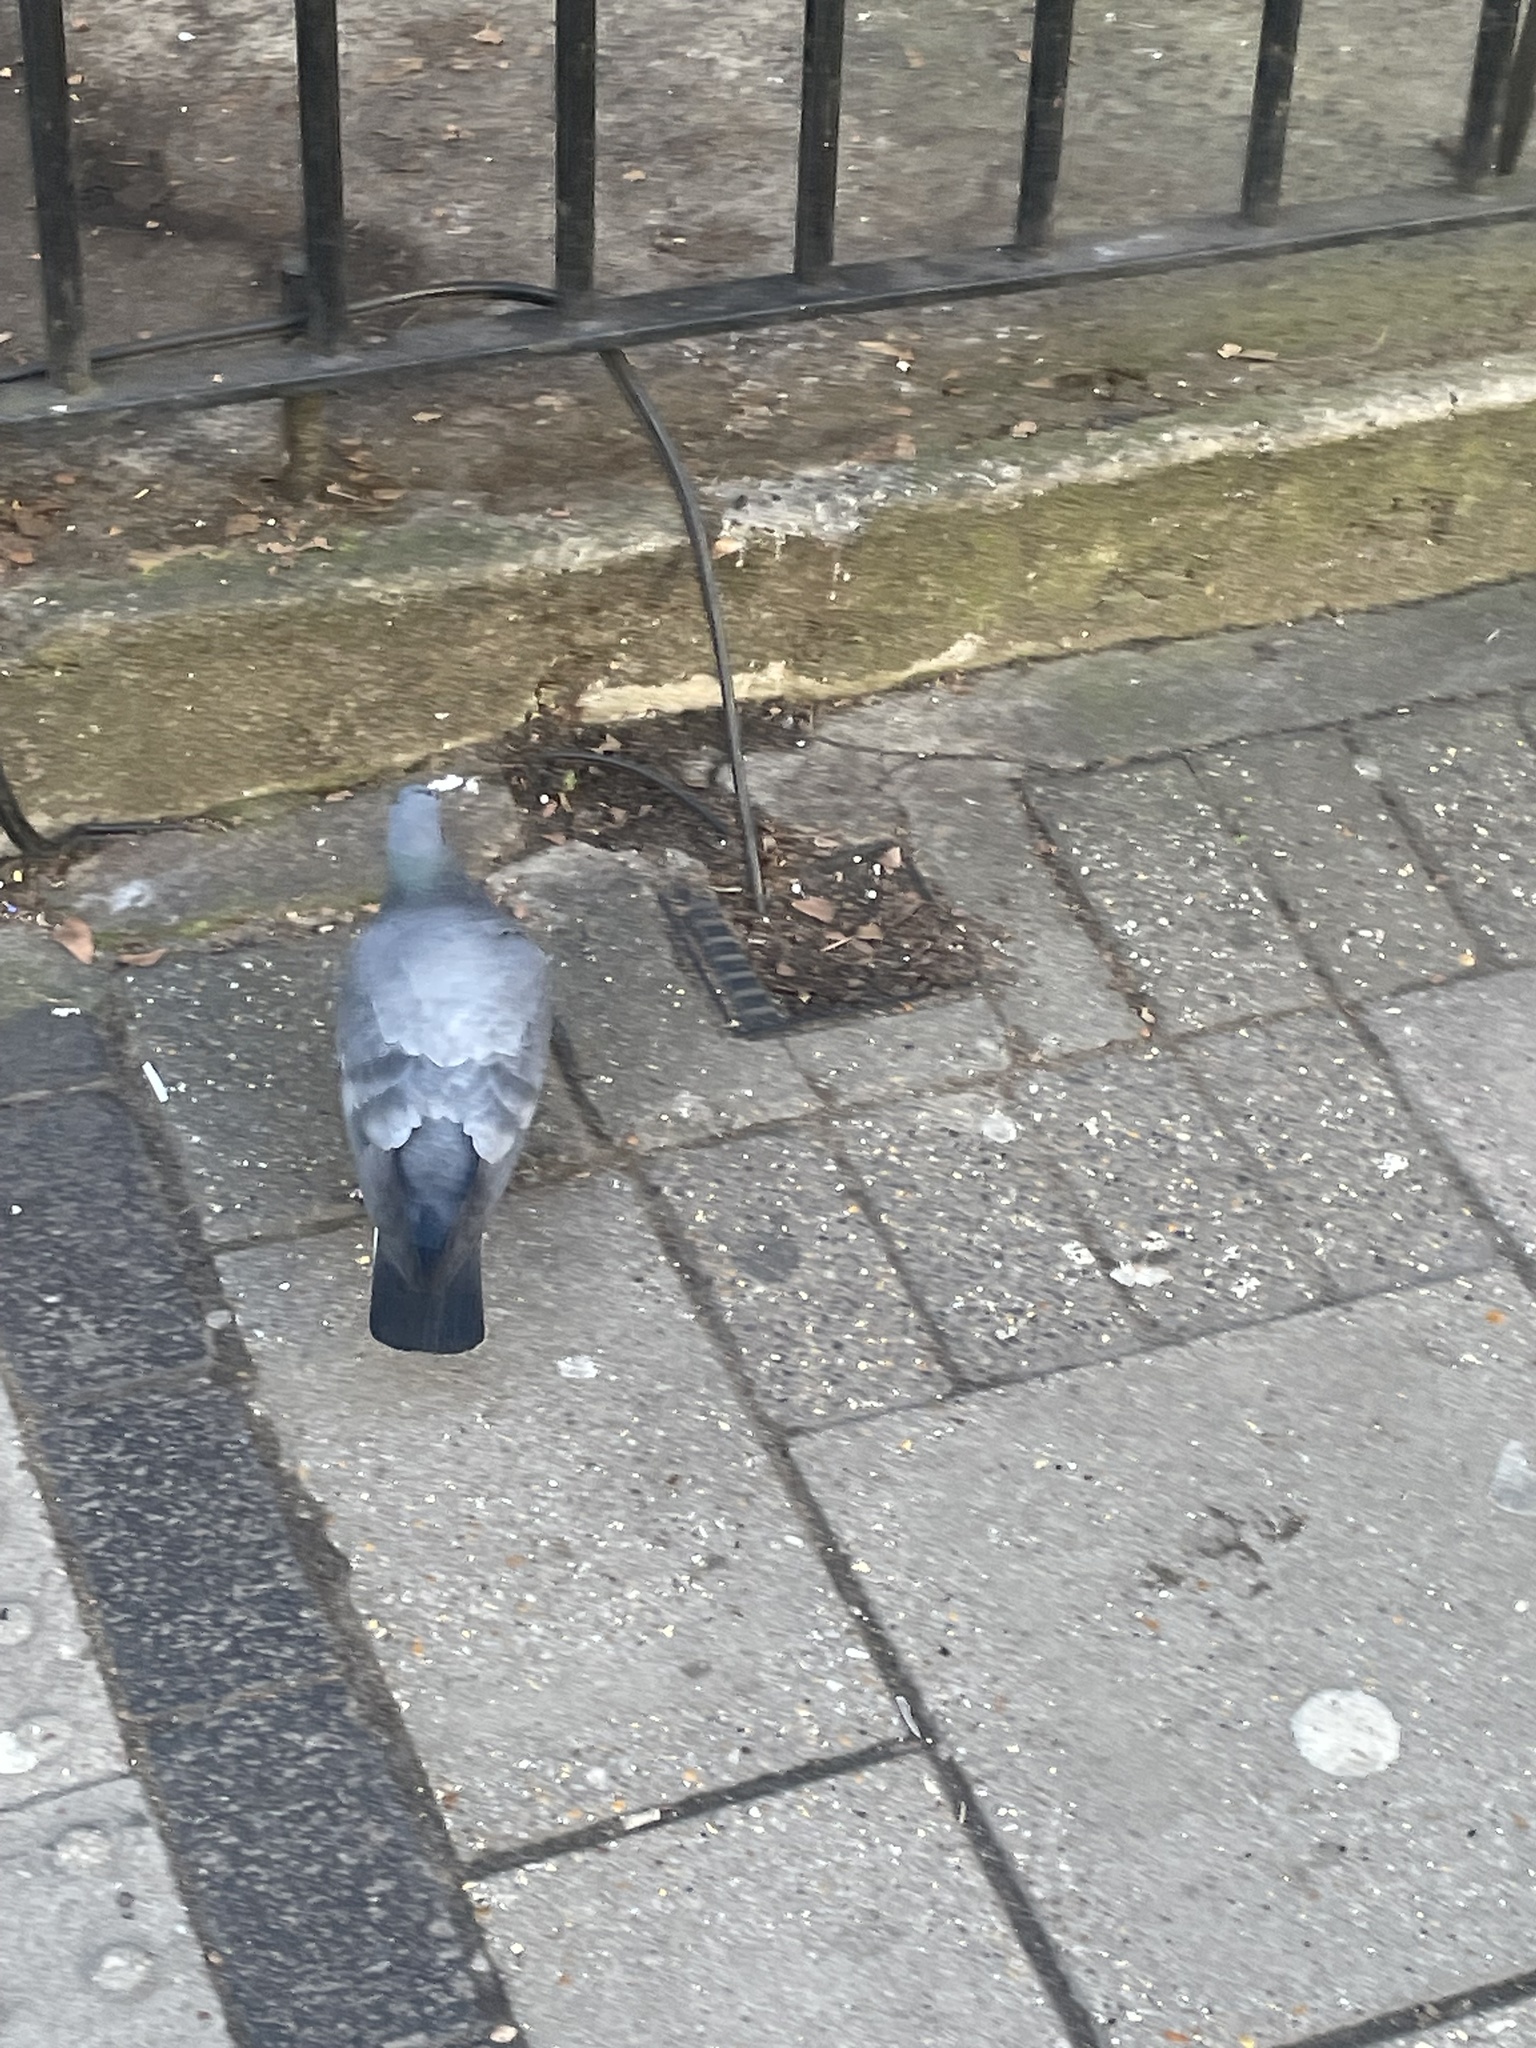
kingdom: Animalia
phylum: Chordata
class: Aves
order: Columbiformes
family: Columbidae
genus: Columba
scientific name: Columba livia
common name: Rock pigeon
